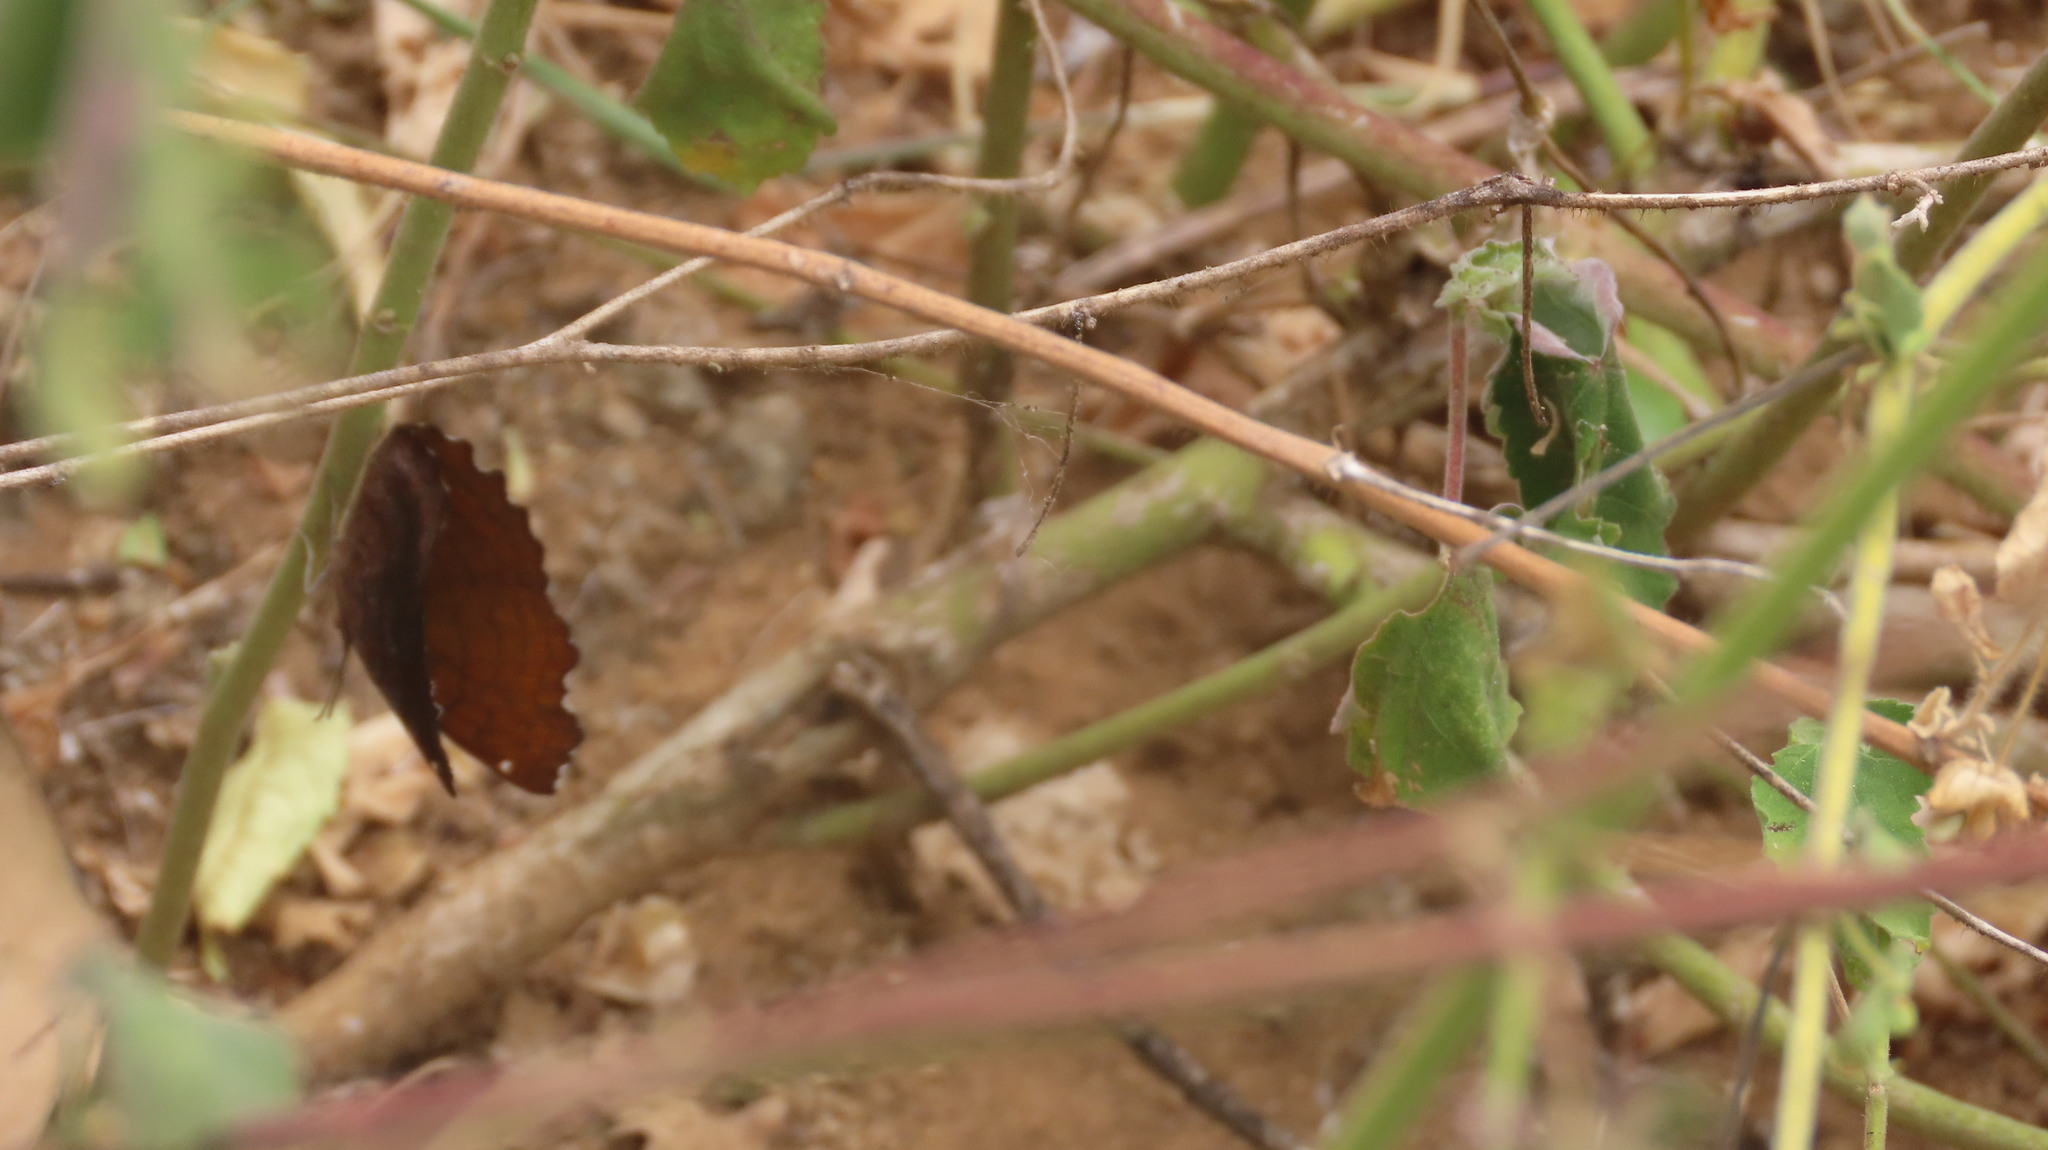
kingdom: Animalia
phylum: Arthropoda
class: Insecta
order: Lepidoptera
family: Nymphalidae
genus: Ariadne
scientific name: Ariadne ariadne
